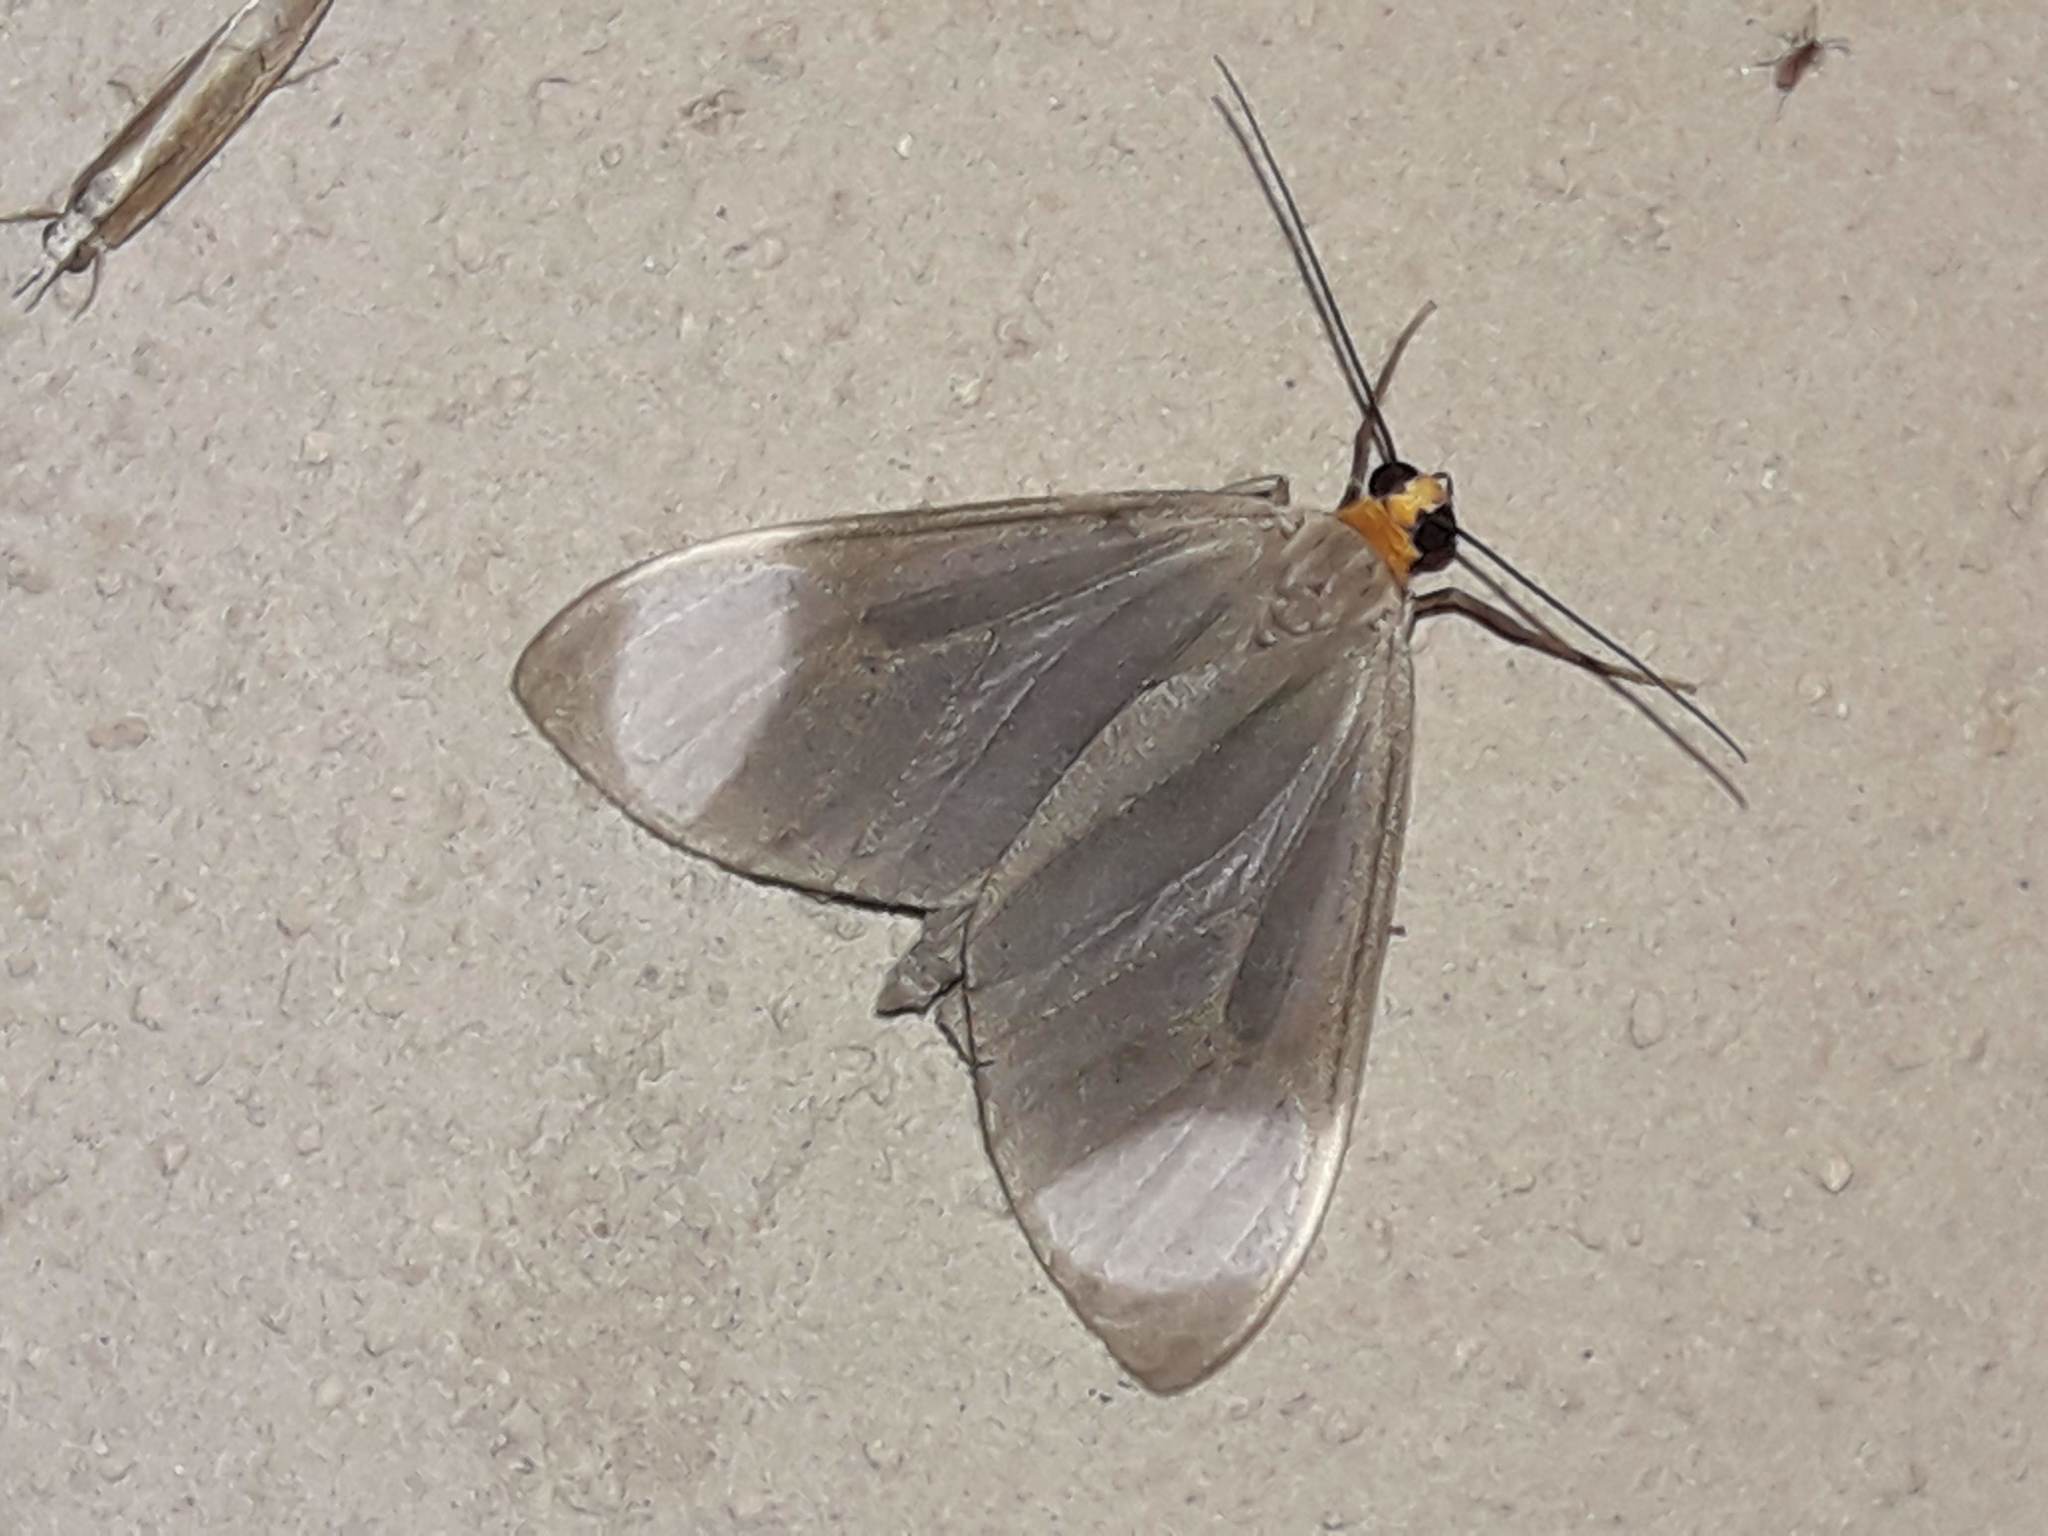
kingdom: Animalia
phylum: Arthropoda
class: Insecta
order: Lepidoptera
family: Geometridae
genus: Crocypus
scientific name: Crocypus perlucidaria
